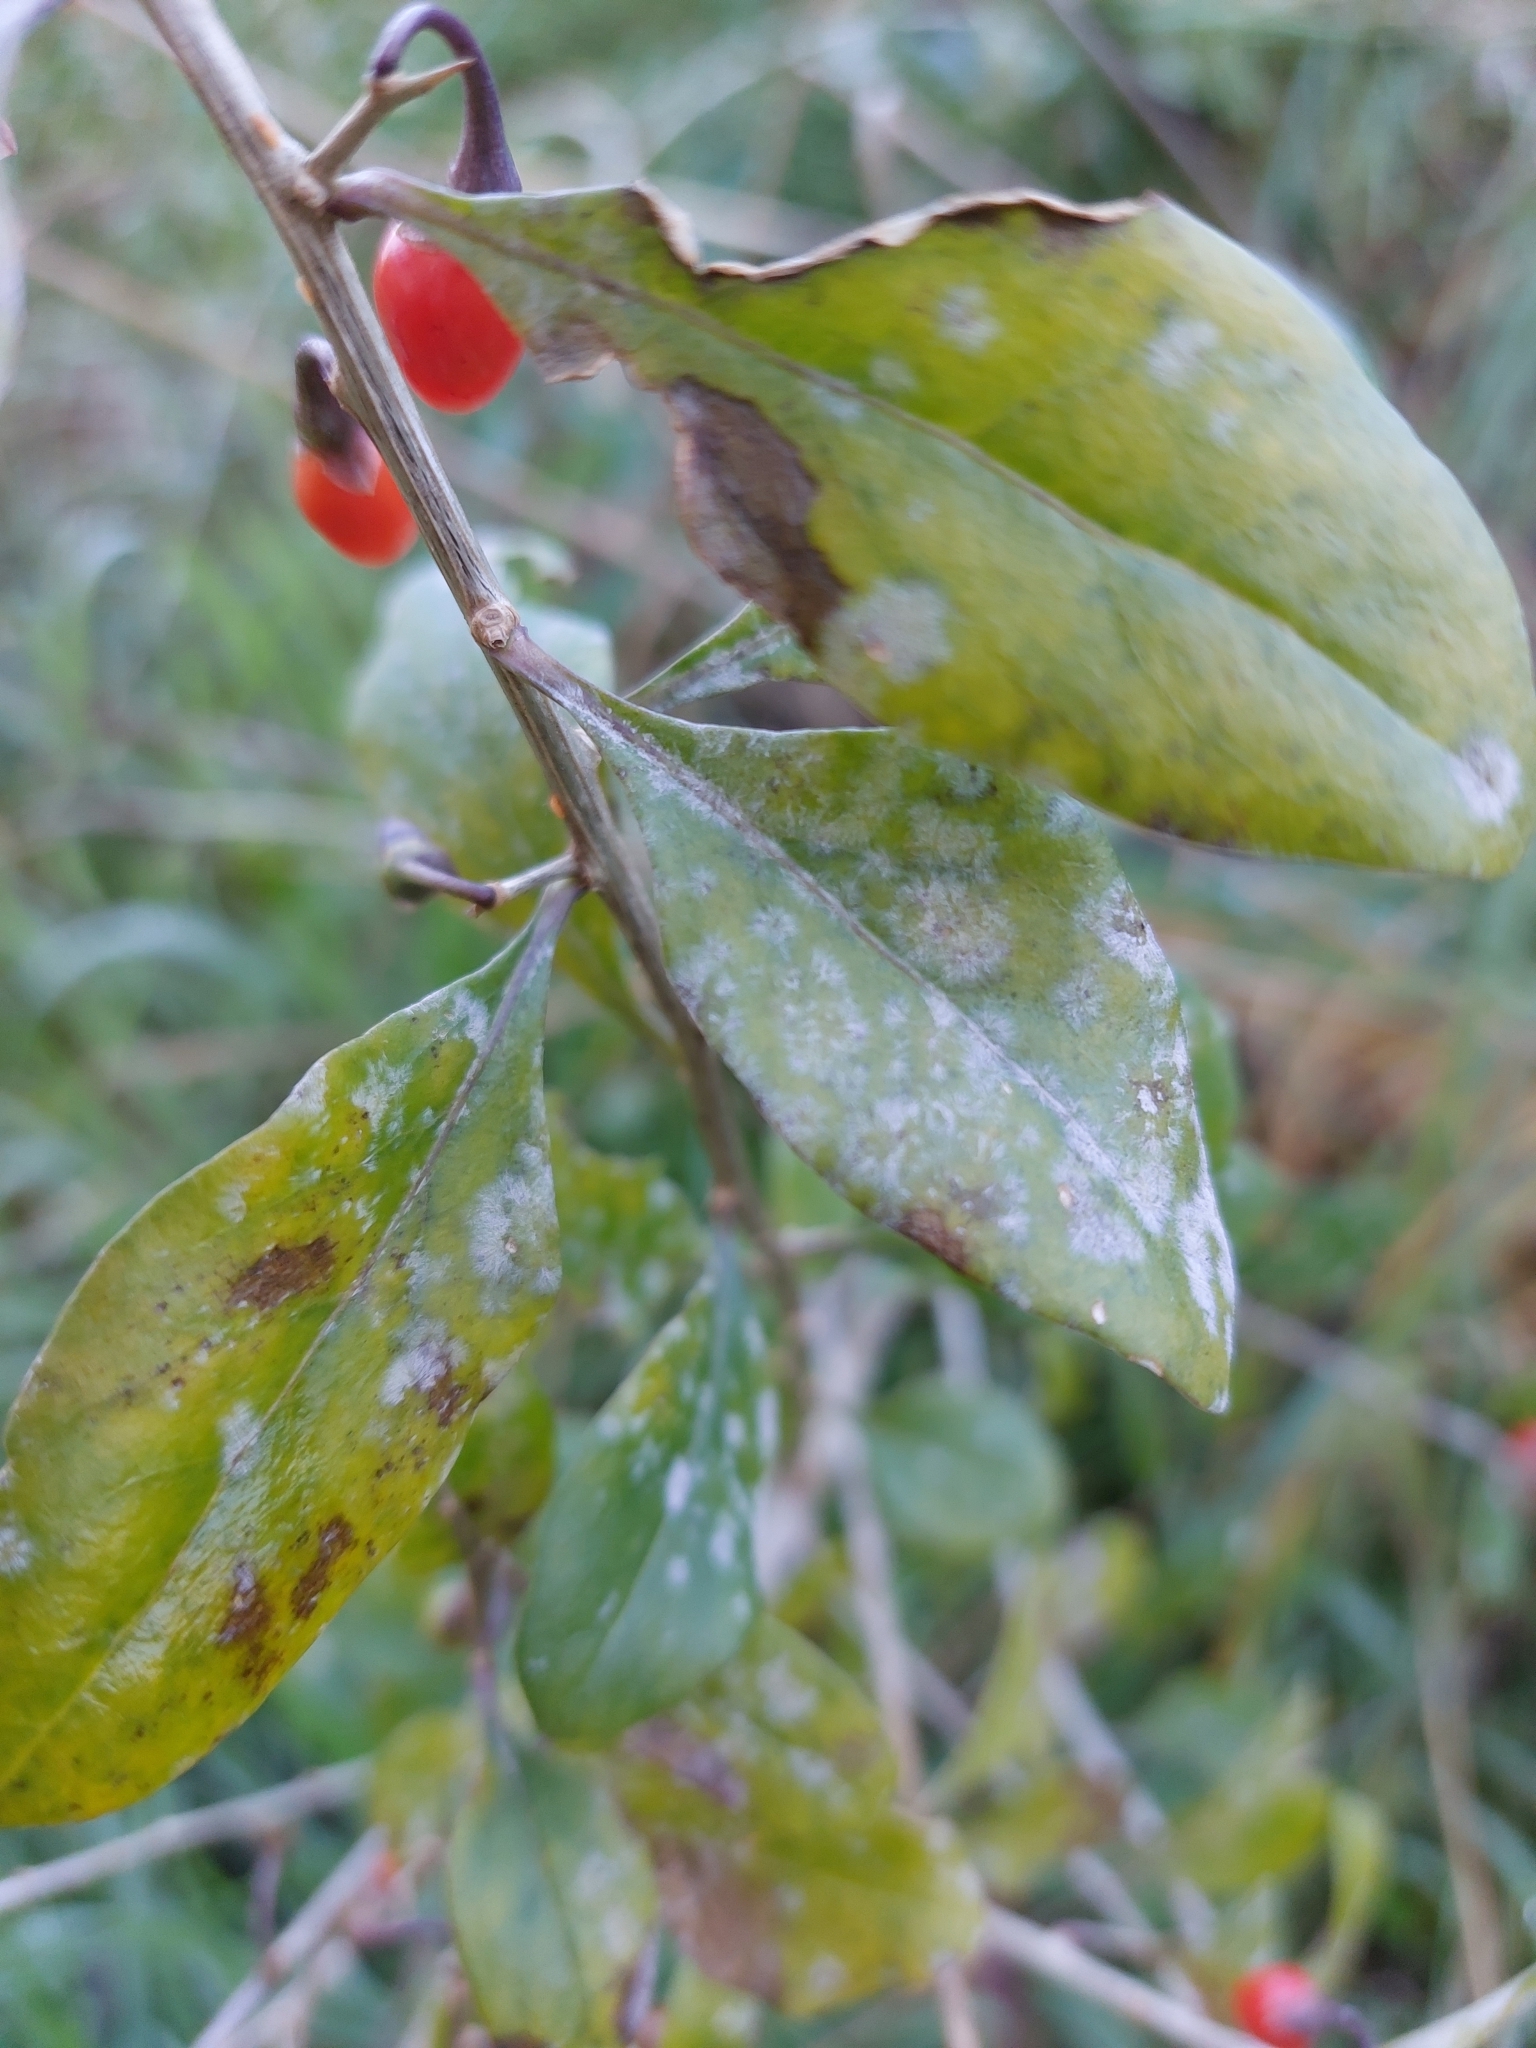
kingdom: Fungi
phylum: Ascomycota
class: Leotiomycetes
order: Helotiales
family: Erysiphaceae
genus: Erysiphe
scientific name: Erysiphe mougeotii
